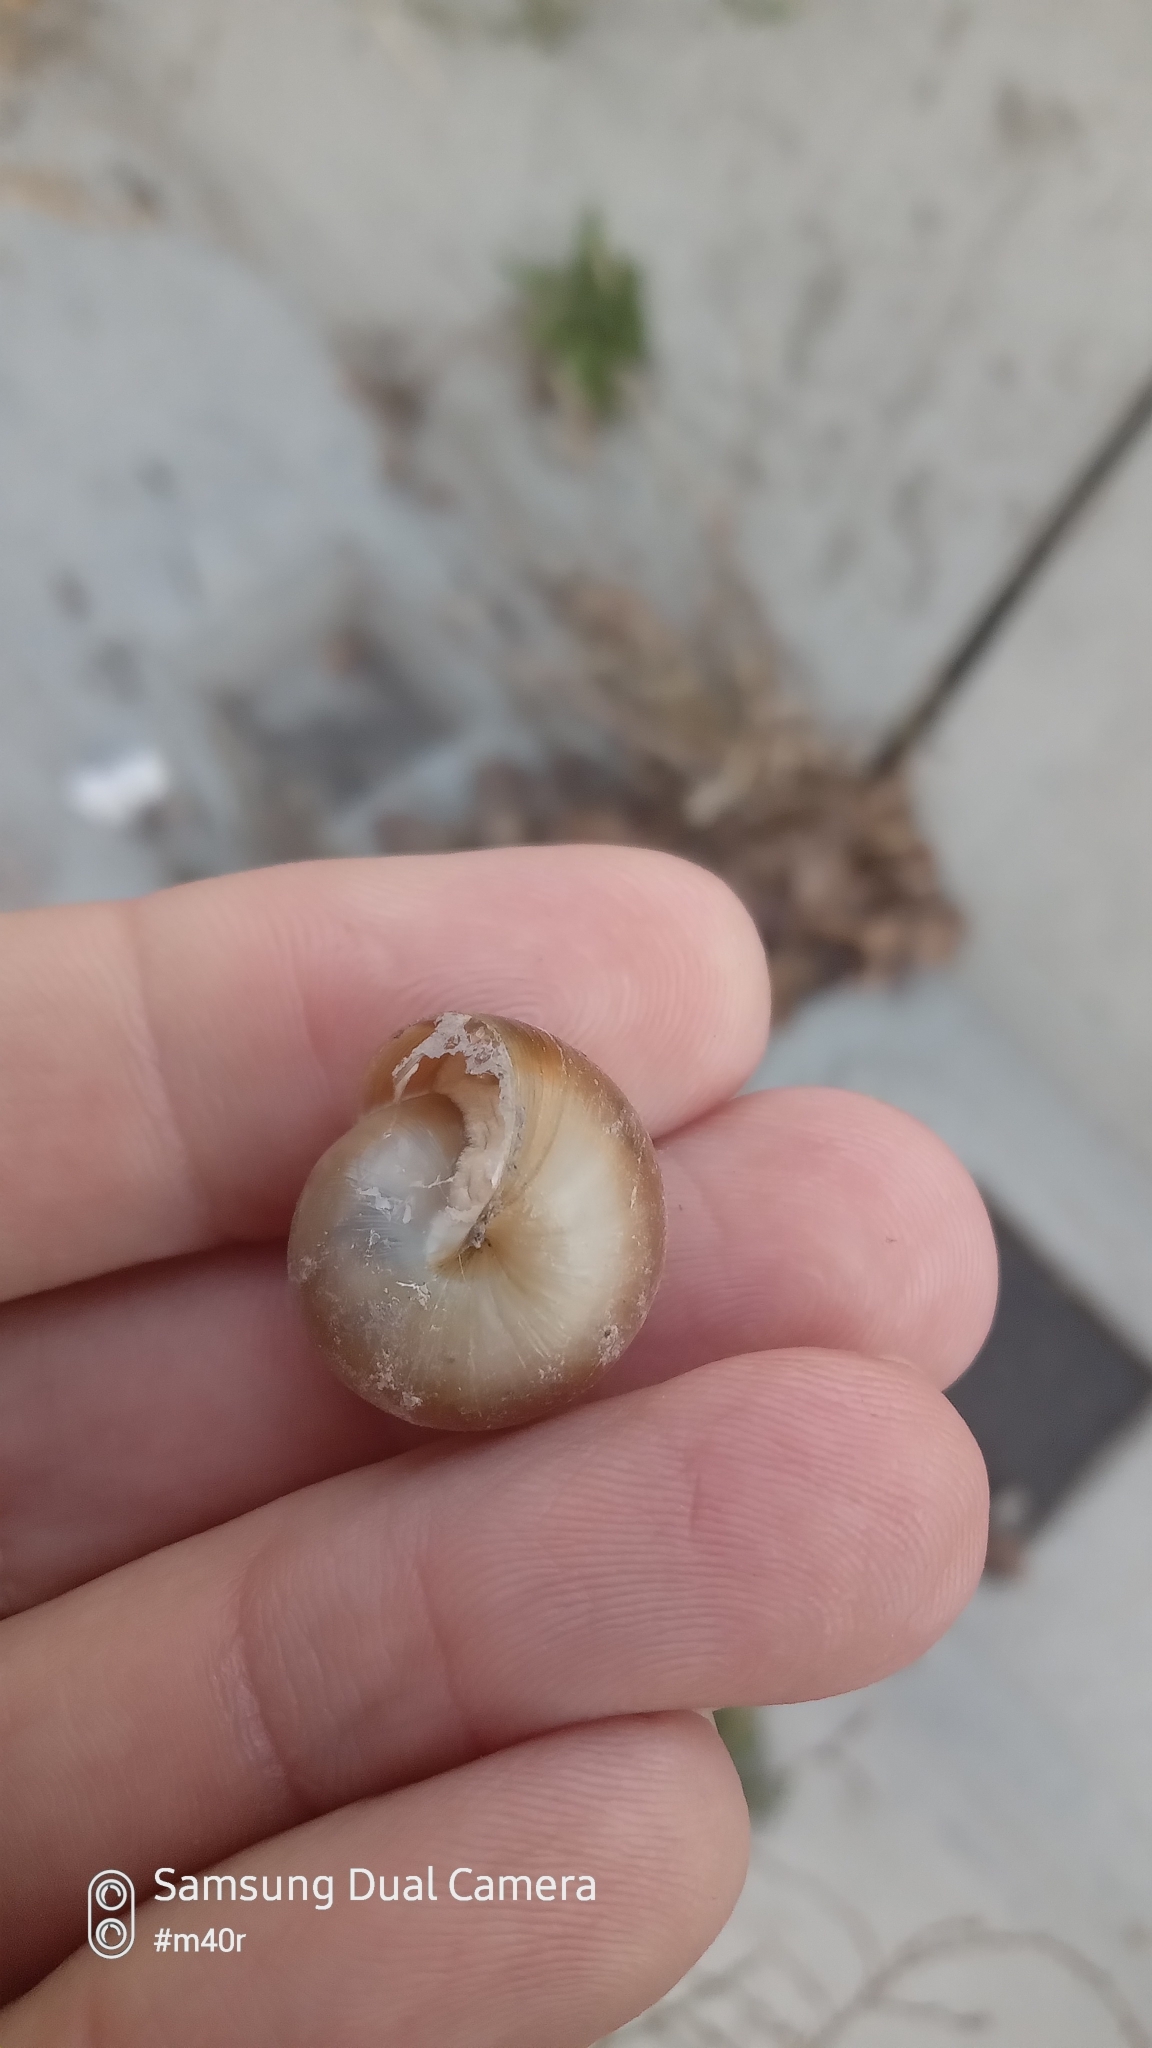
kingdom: Animalia
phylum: Mollusca
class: Gastropoda
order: Stylommatophora
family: Camaenidae
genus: Fruticicola
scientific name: Fruticicola lantzi
